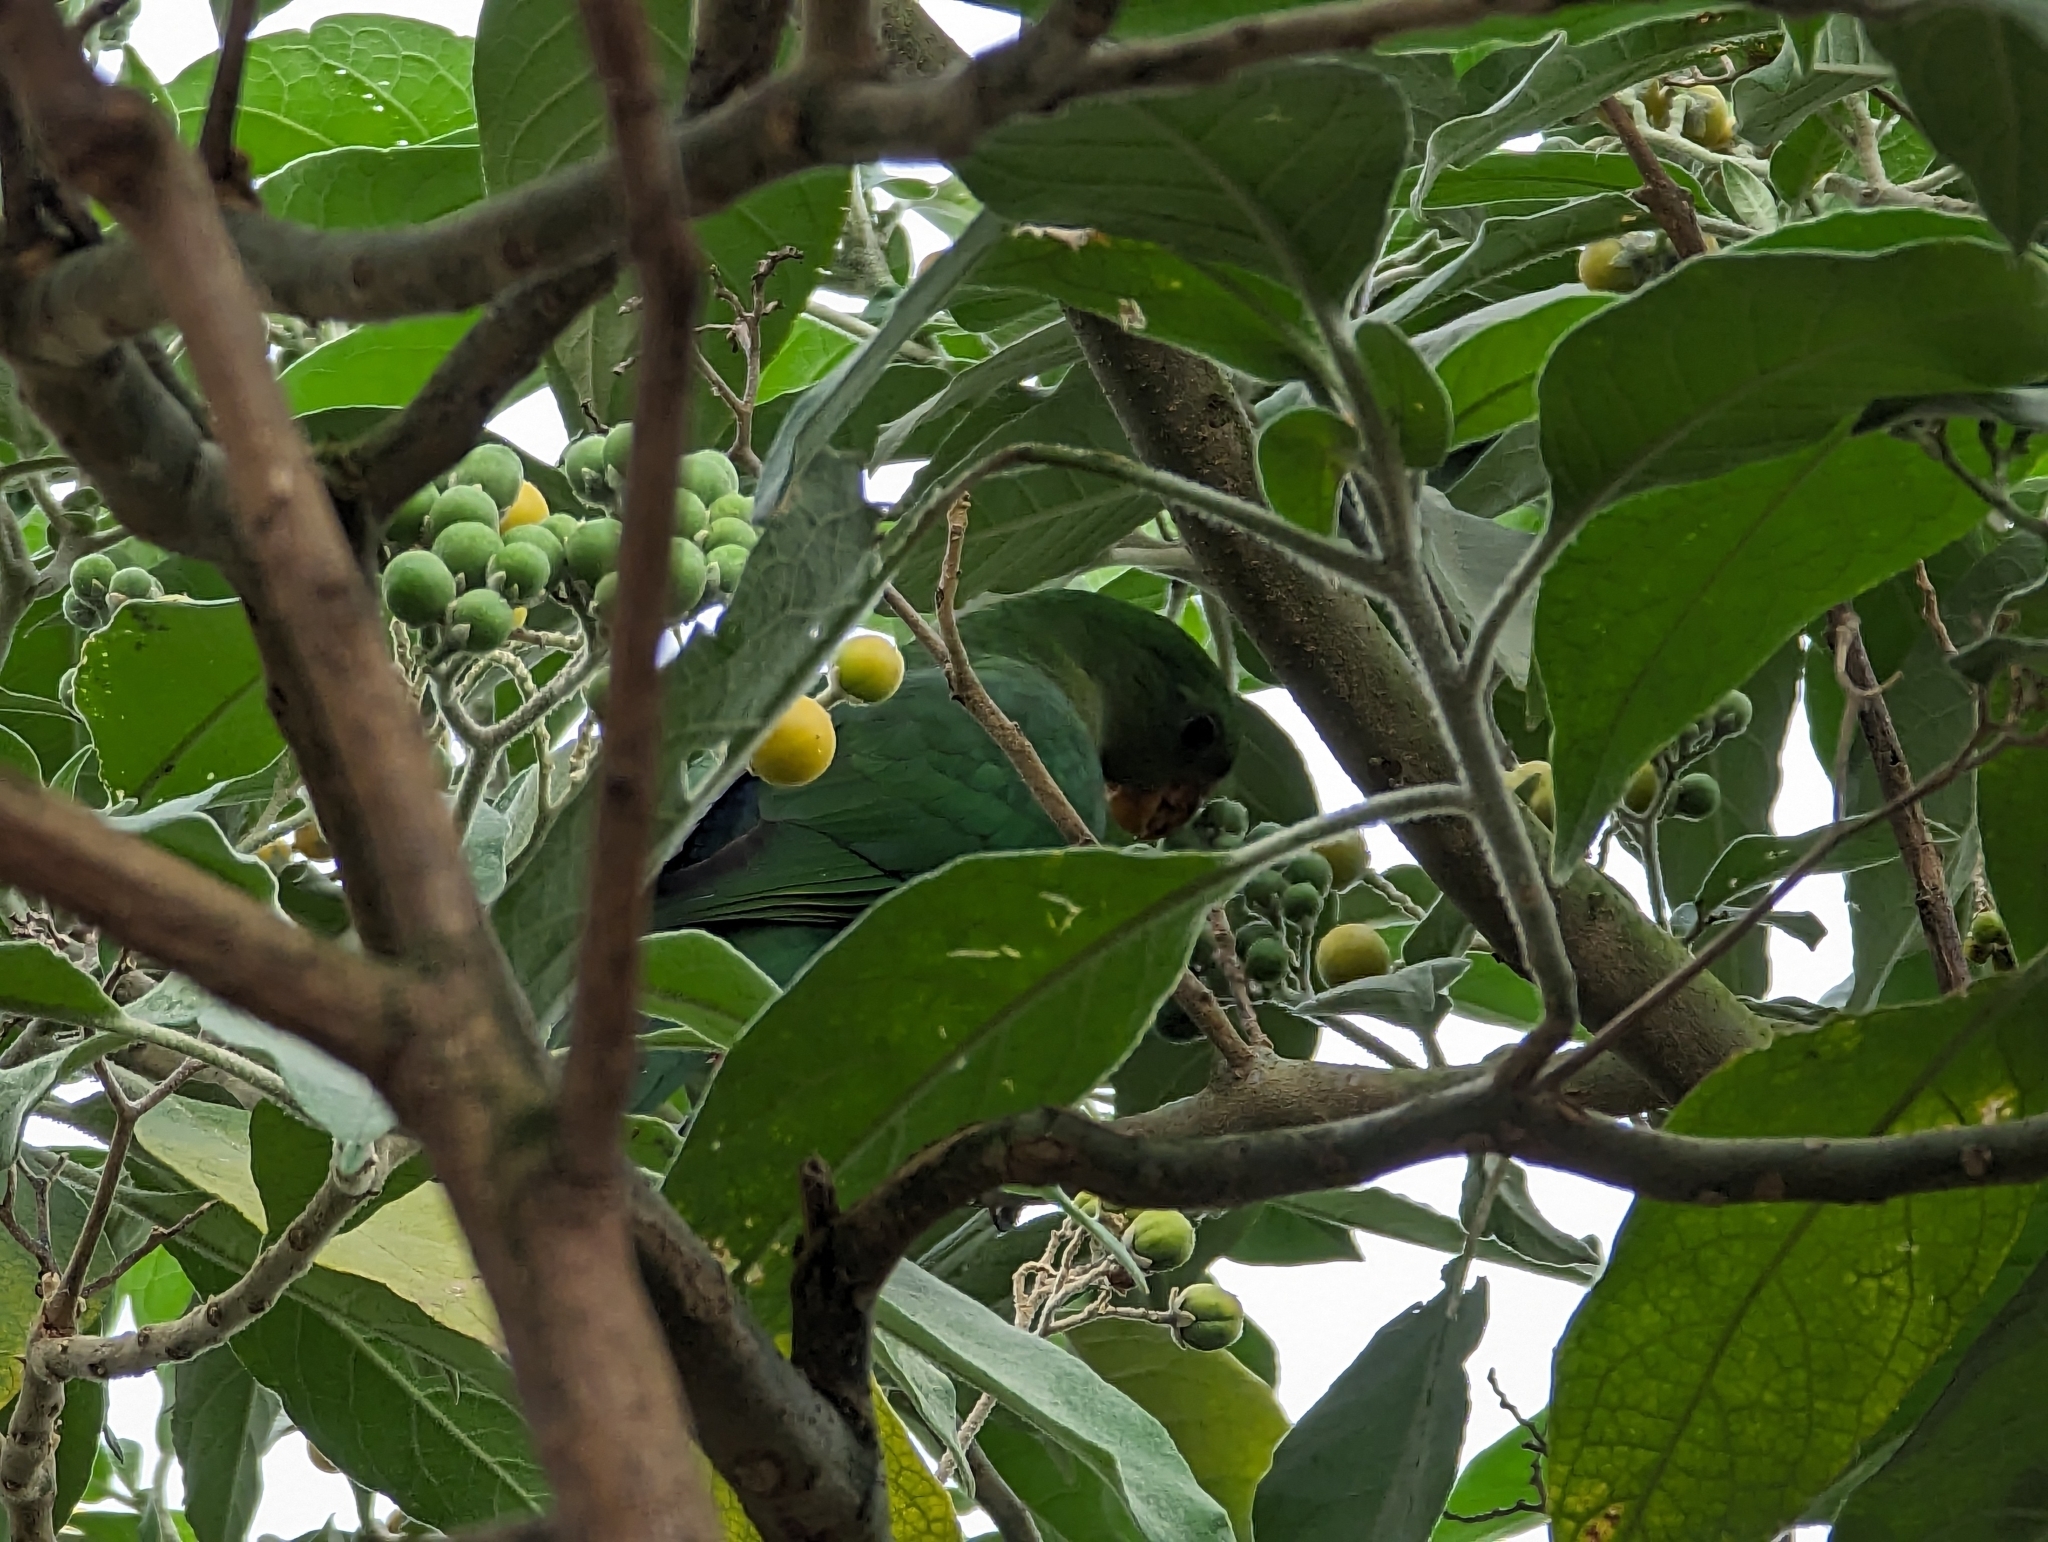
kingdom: Animalia
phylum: Chordata
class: Aves
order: Psittaciformes
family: Psittacidae
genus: Alisterus
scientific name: Alisterus scapularis
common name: Australian king parrot
